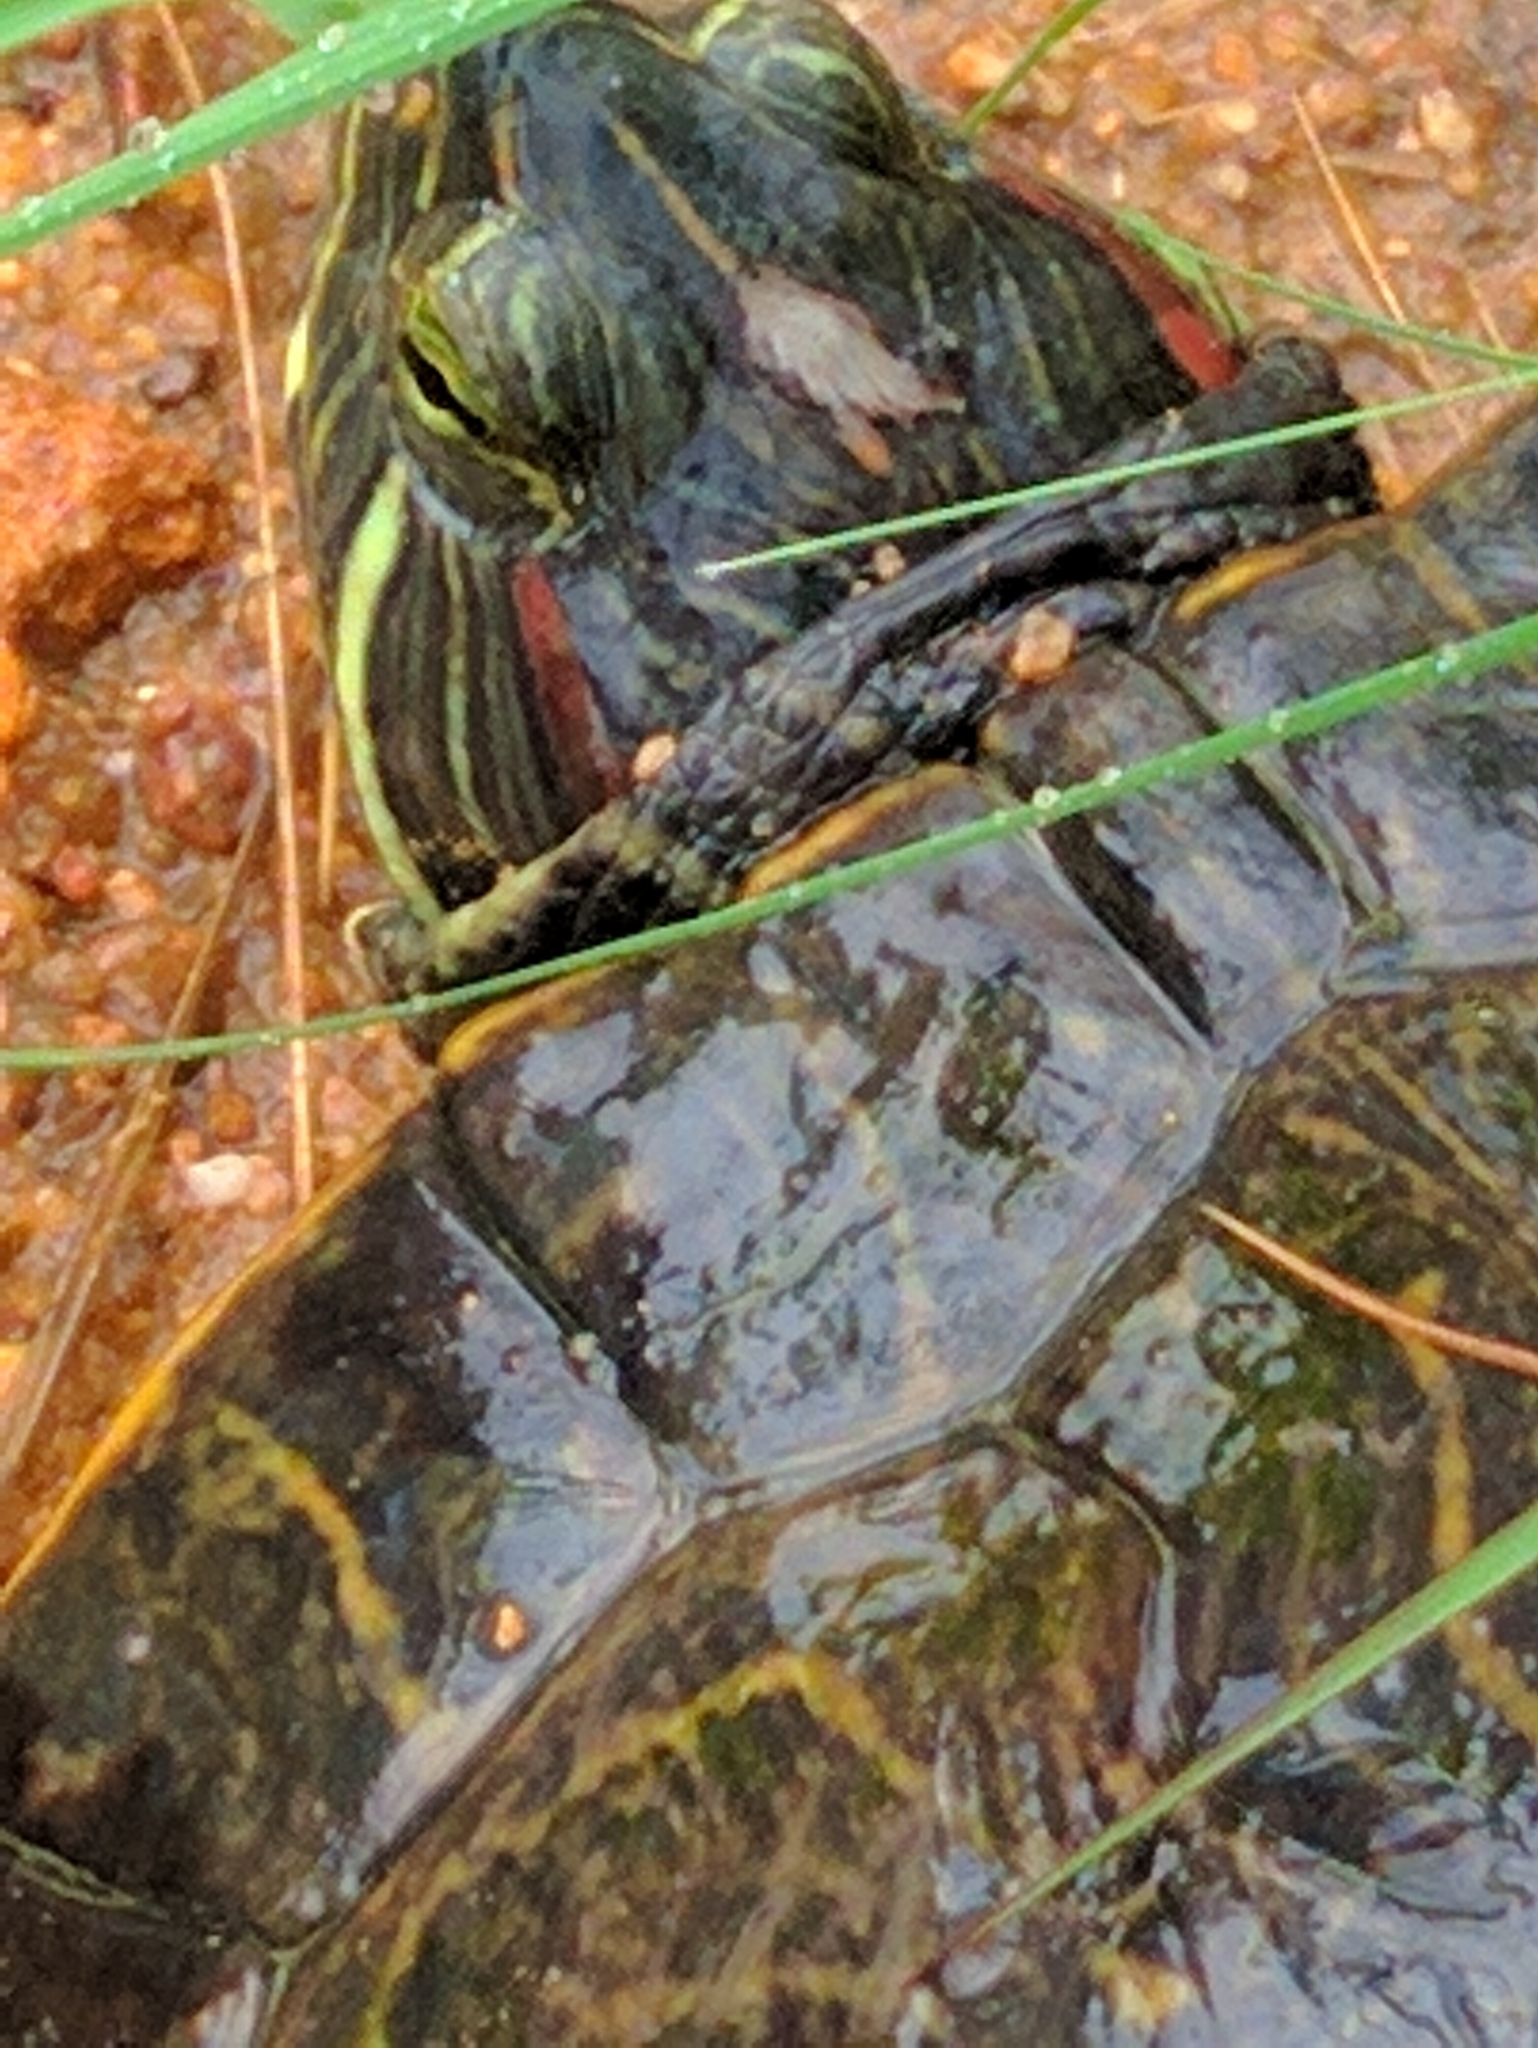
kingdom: Animalia
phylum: Chordata
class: Testudines
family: Emydidae
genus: Trachemys
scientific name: Trachemys scripta
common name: Slider
